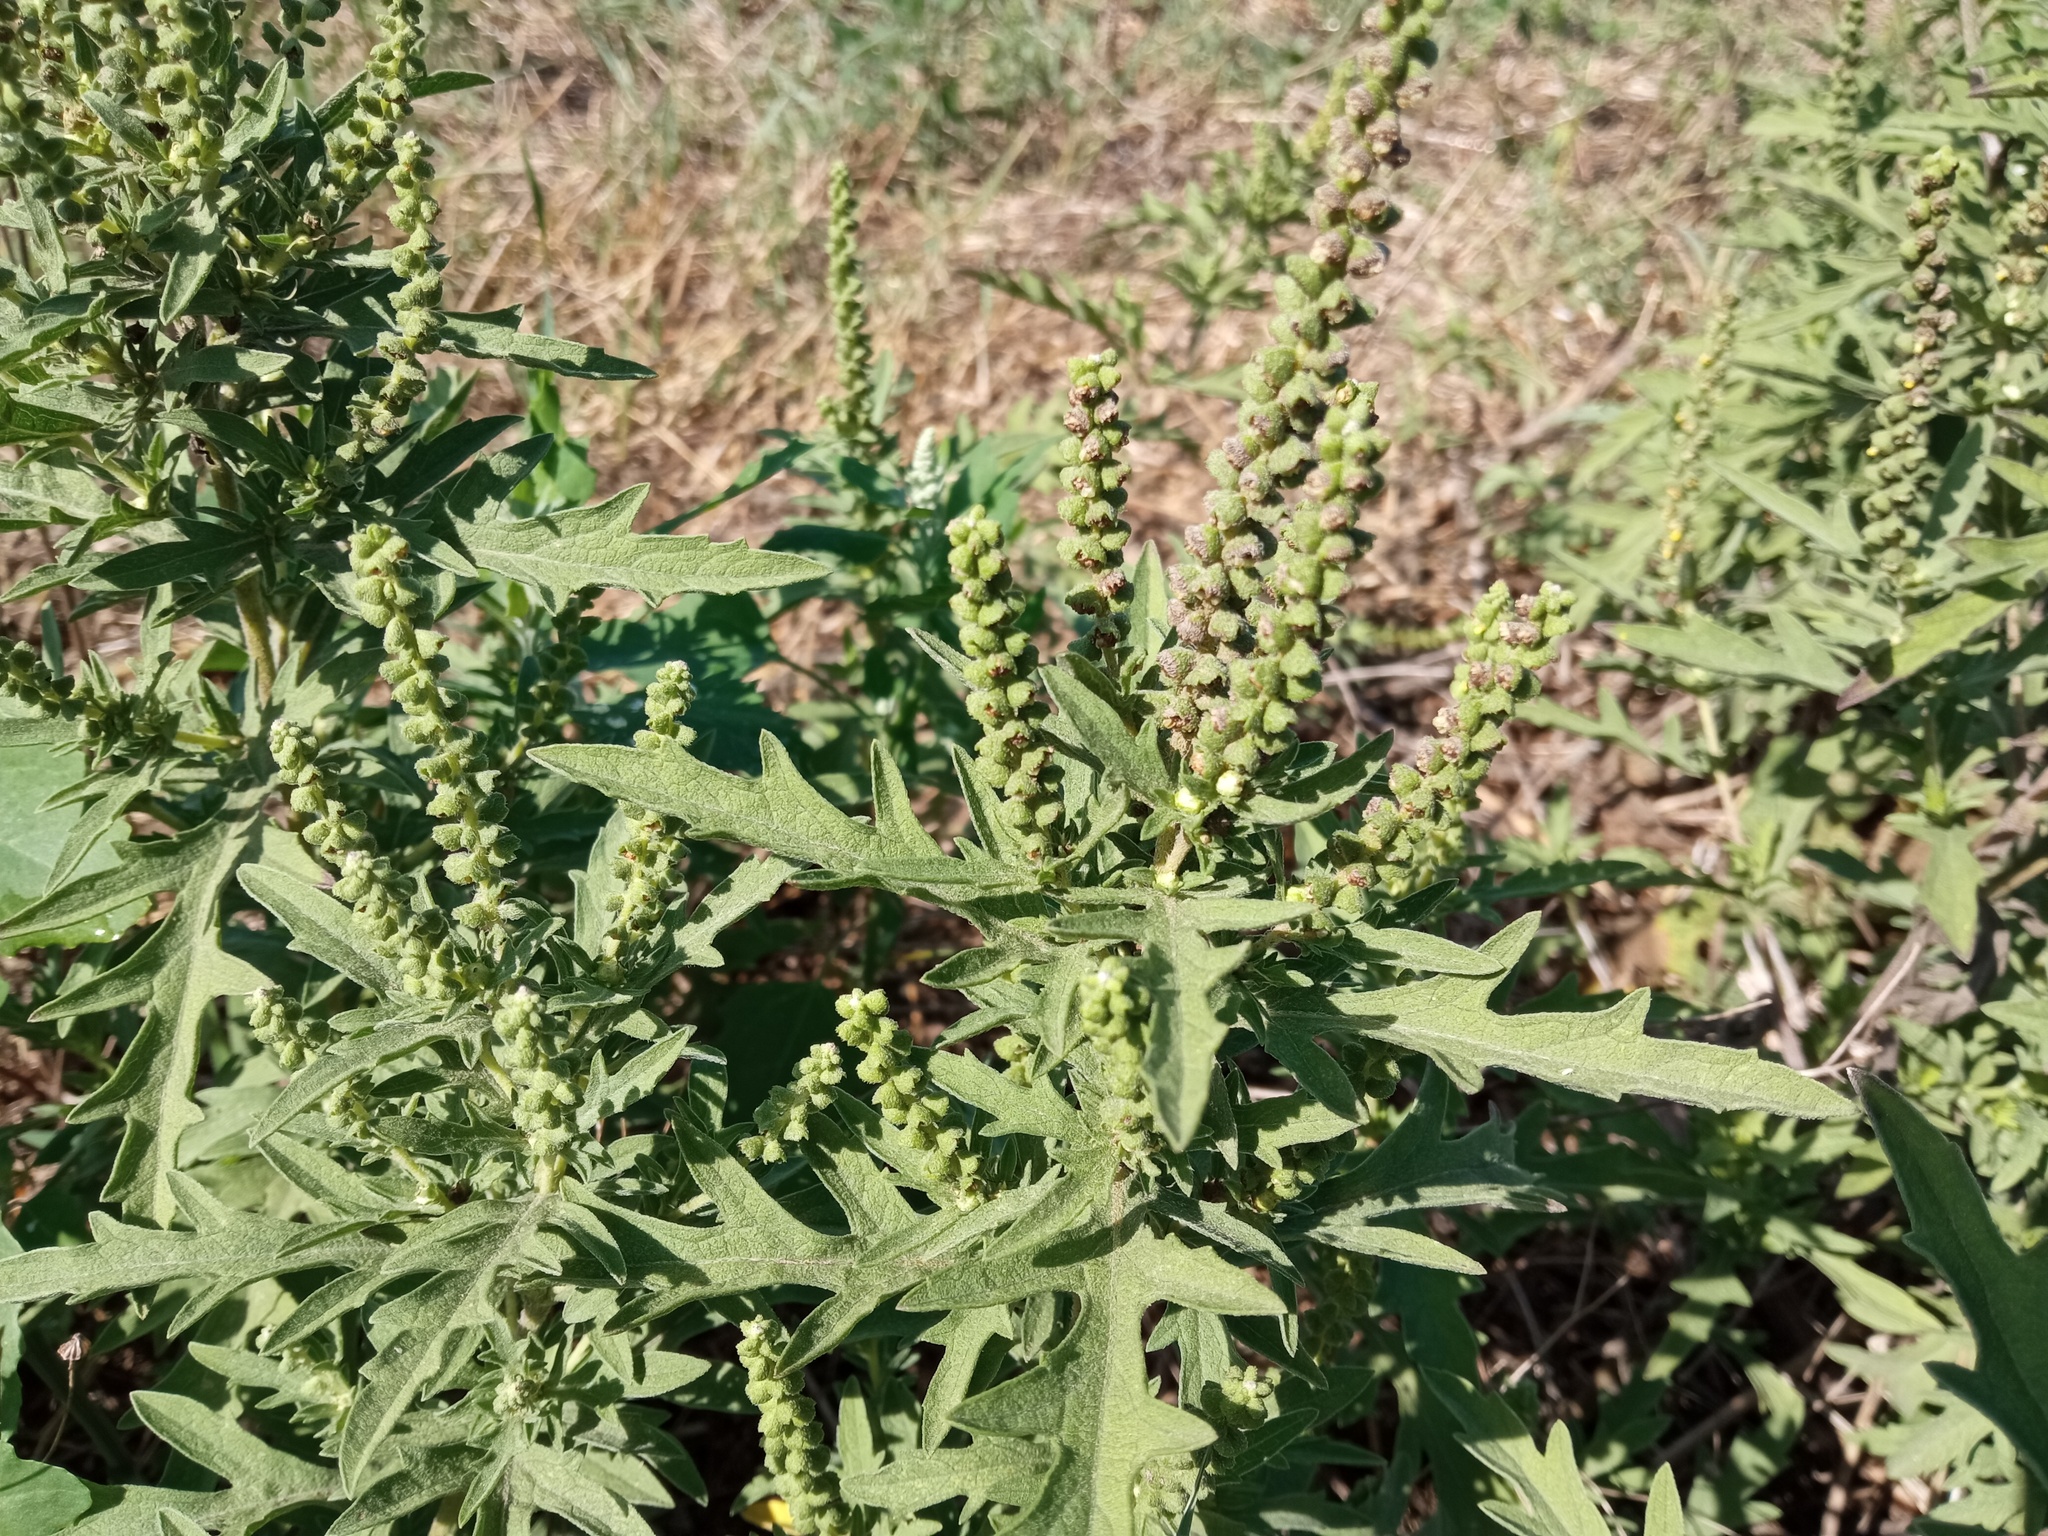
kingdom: Plantae
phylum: Tracheophyta
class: Magnoliopsida
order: Asterales
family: Asteraceae
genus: Ambrosia
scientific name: Ambrosia psilostachya
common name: Perennial ragweed
